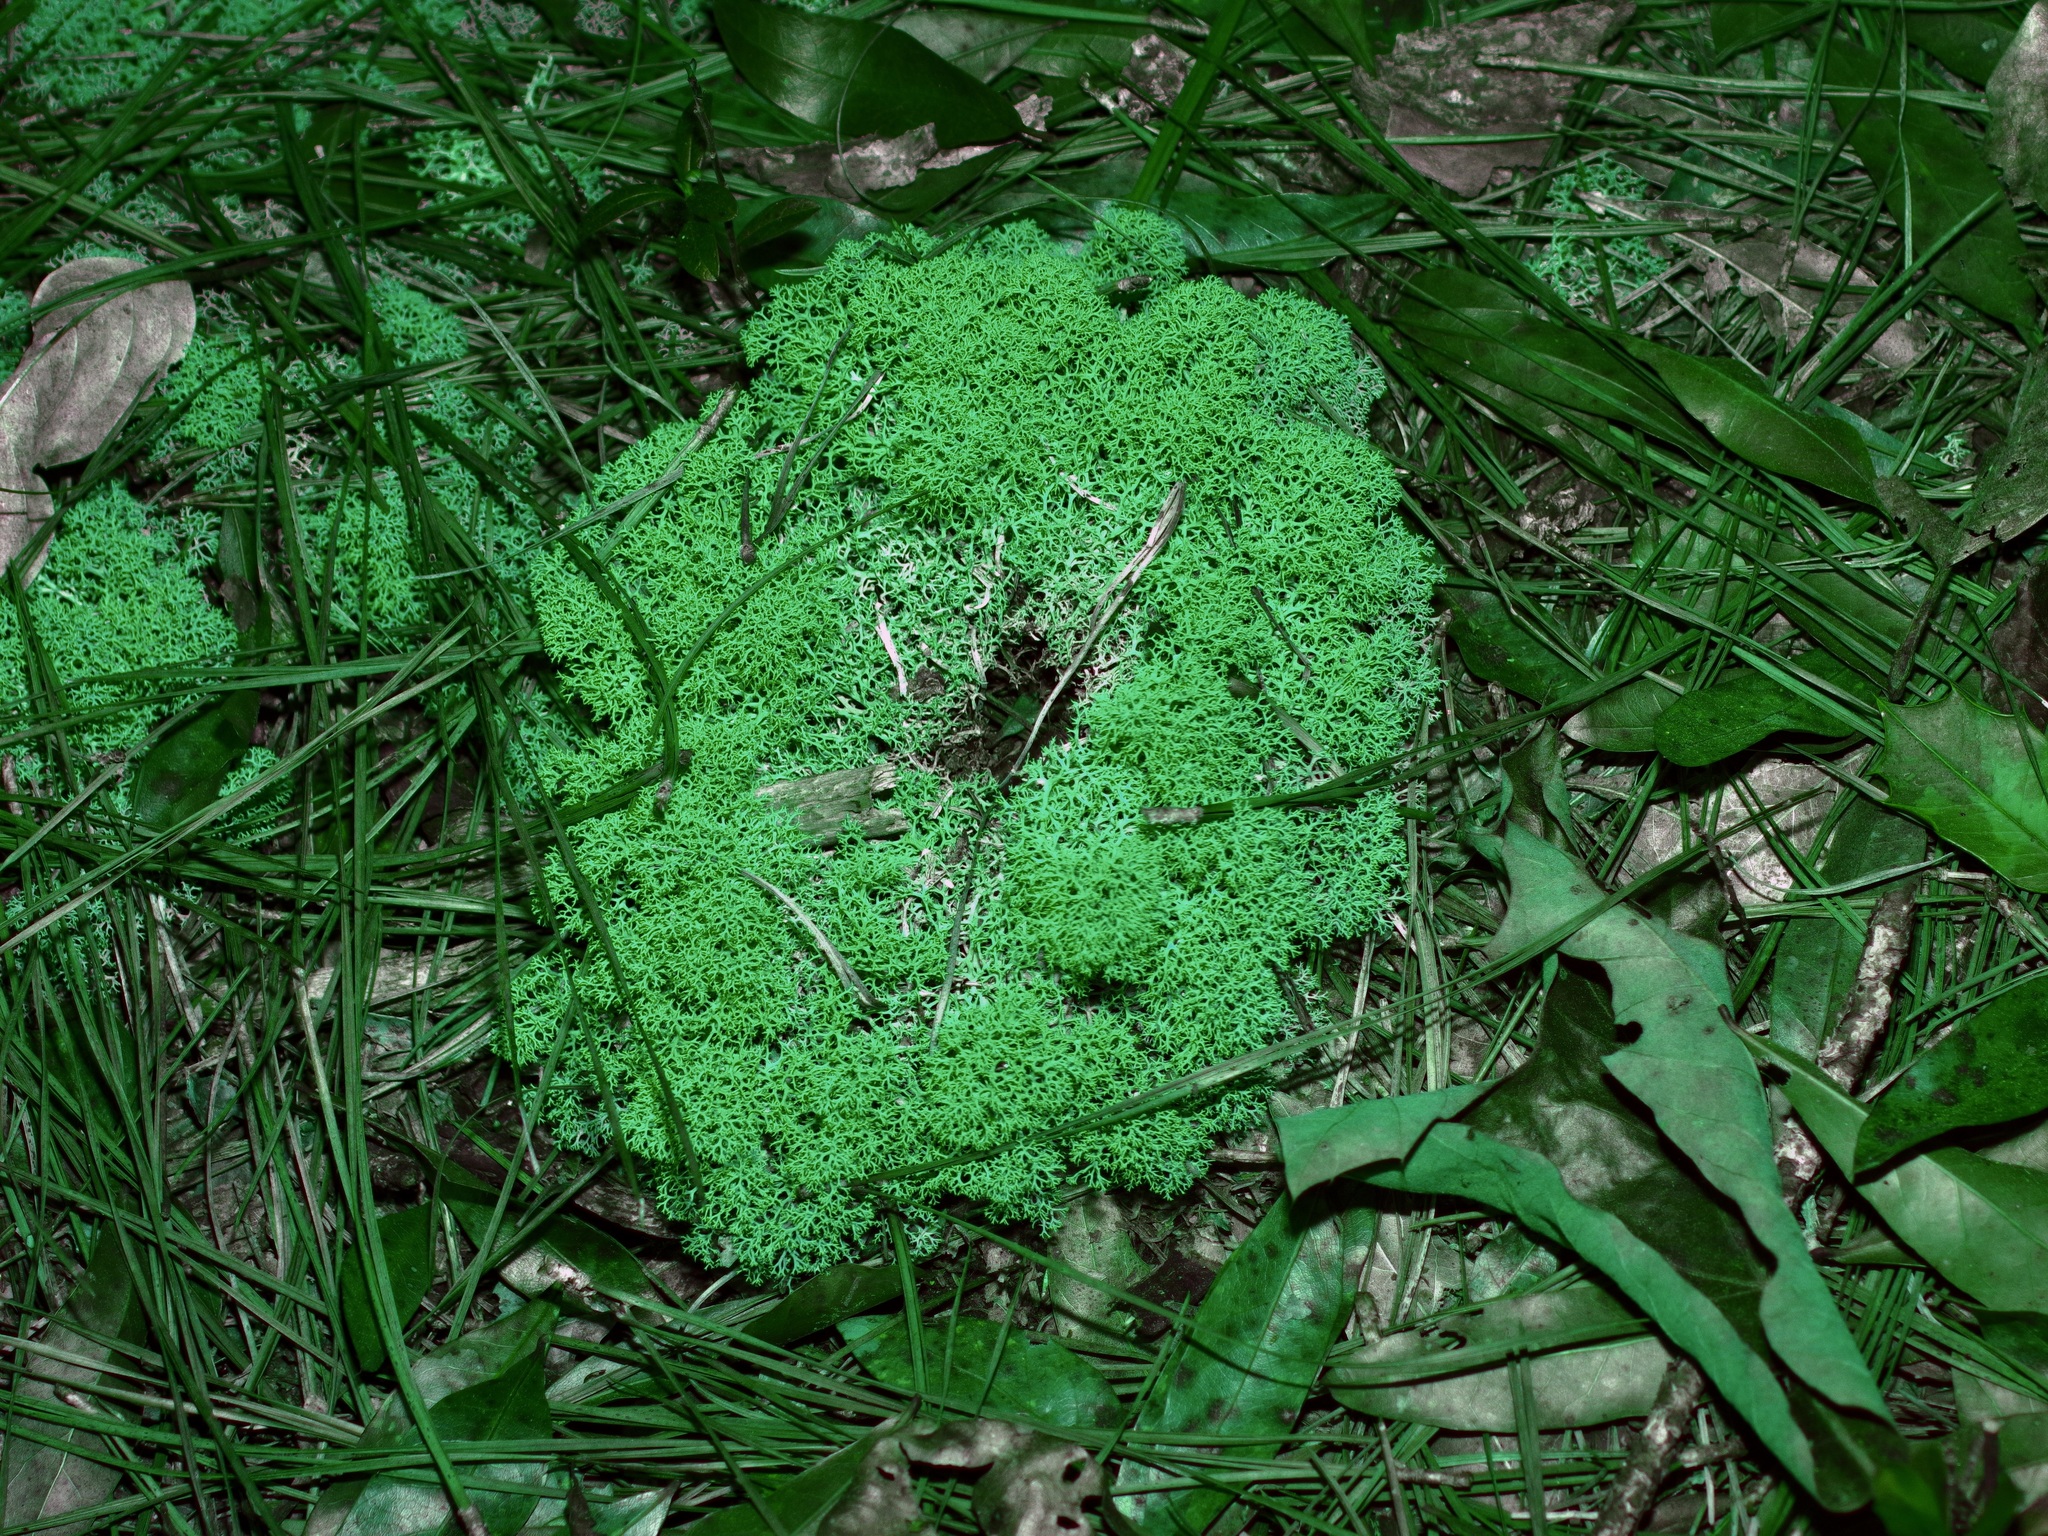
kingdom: Fungi
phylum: Ascomycota
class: Lecanoromycetes
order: Lecanorales
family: Cladoniaceae
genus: Cladonia
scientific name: Cladonia subtenuis
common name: Dixie reindeer lichen
